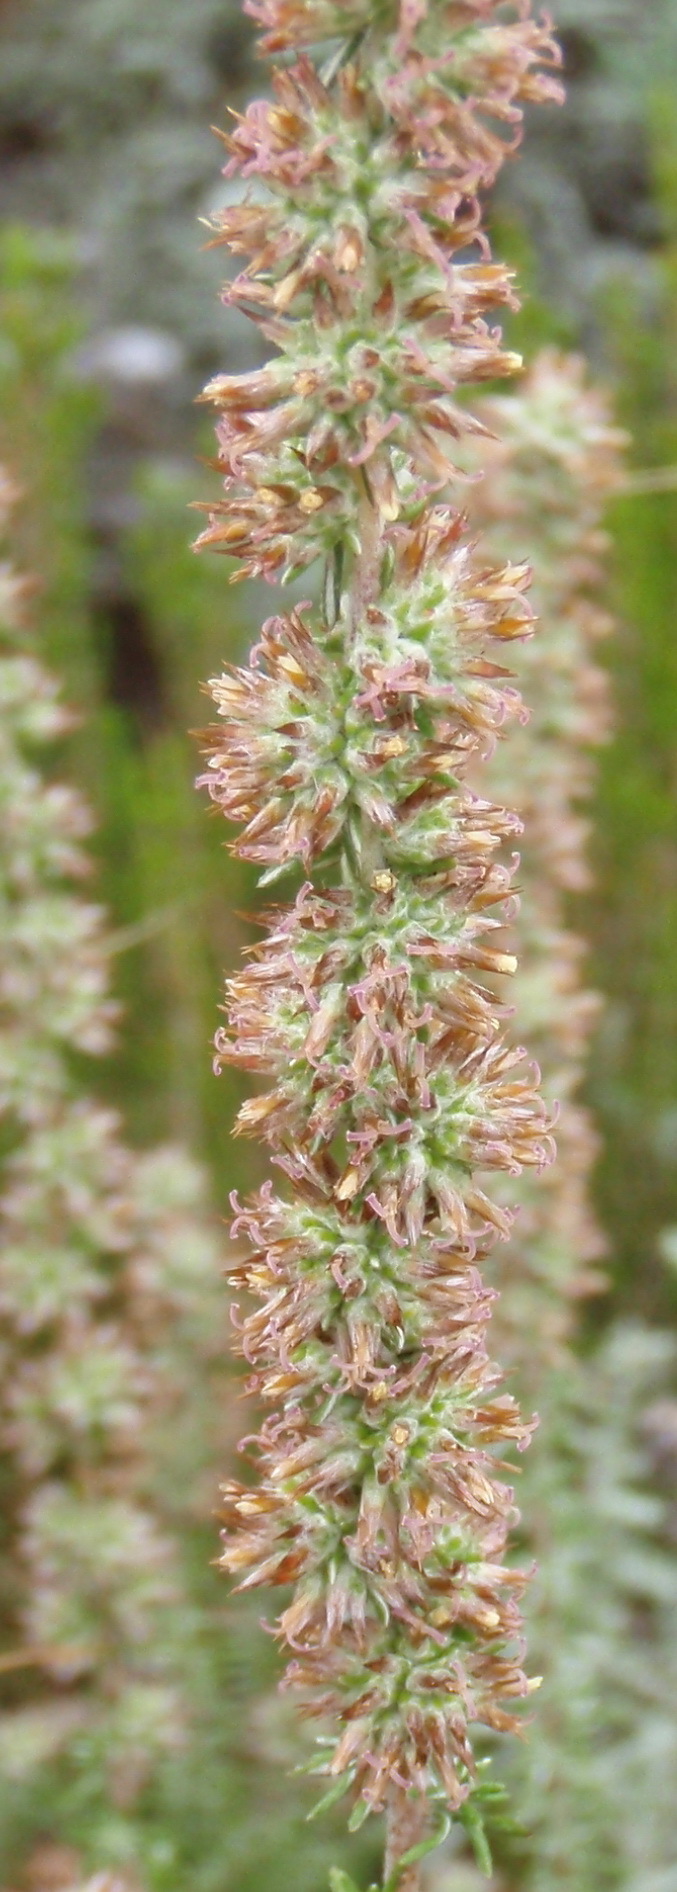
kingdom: Plantae
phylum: Tracheophyta
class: Magnoliopsida
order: Asterales
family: Asteraceae
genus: Seriphium
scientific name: Seriphium cinereum
